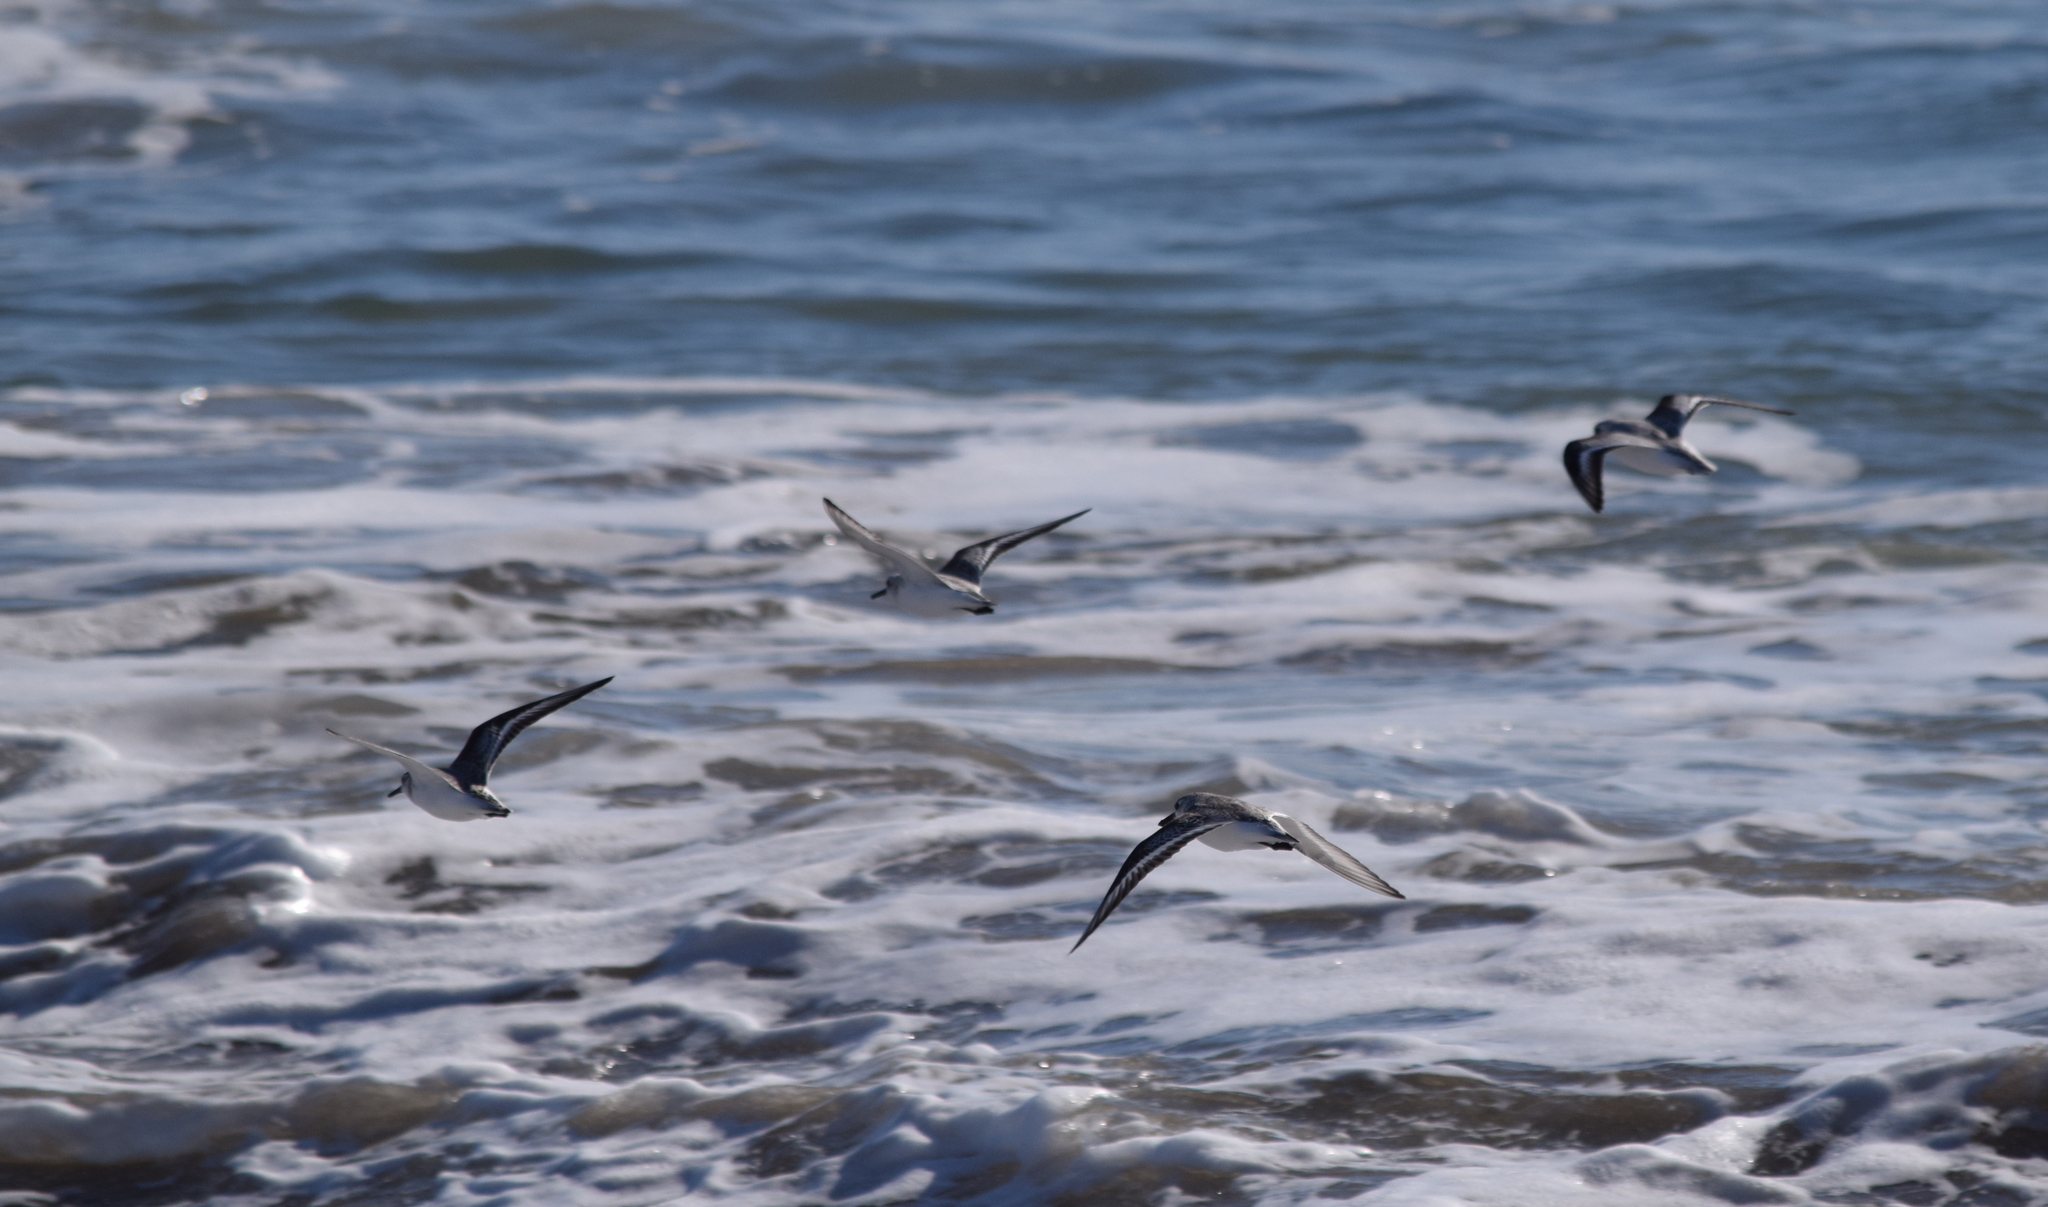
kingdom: Animalia
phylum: Chordata
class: Aves
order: Charadriiformes
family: Scolopacidae
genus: Calidris
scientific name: Calidris alba
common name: Sanderling
